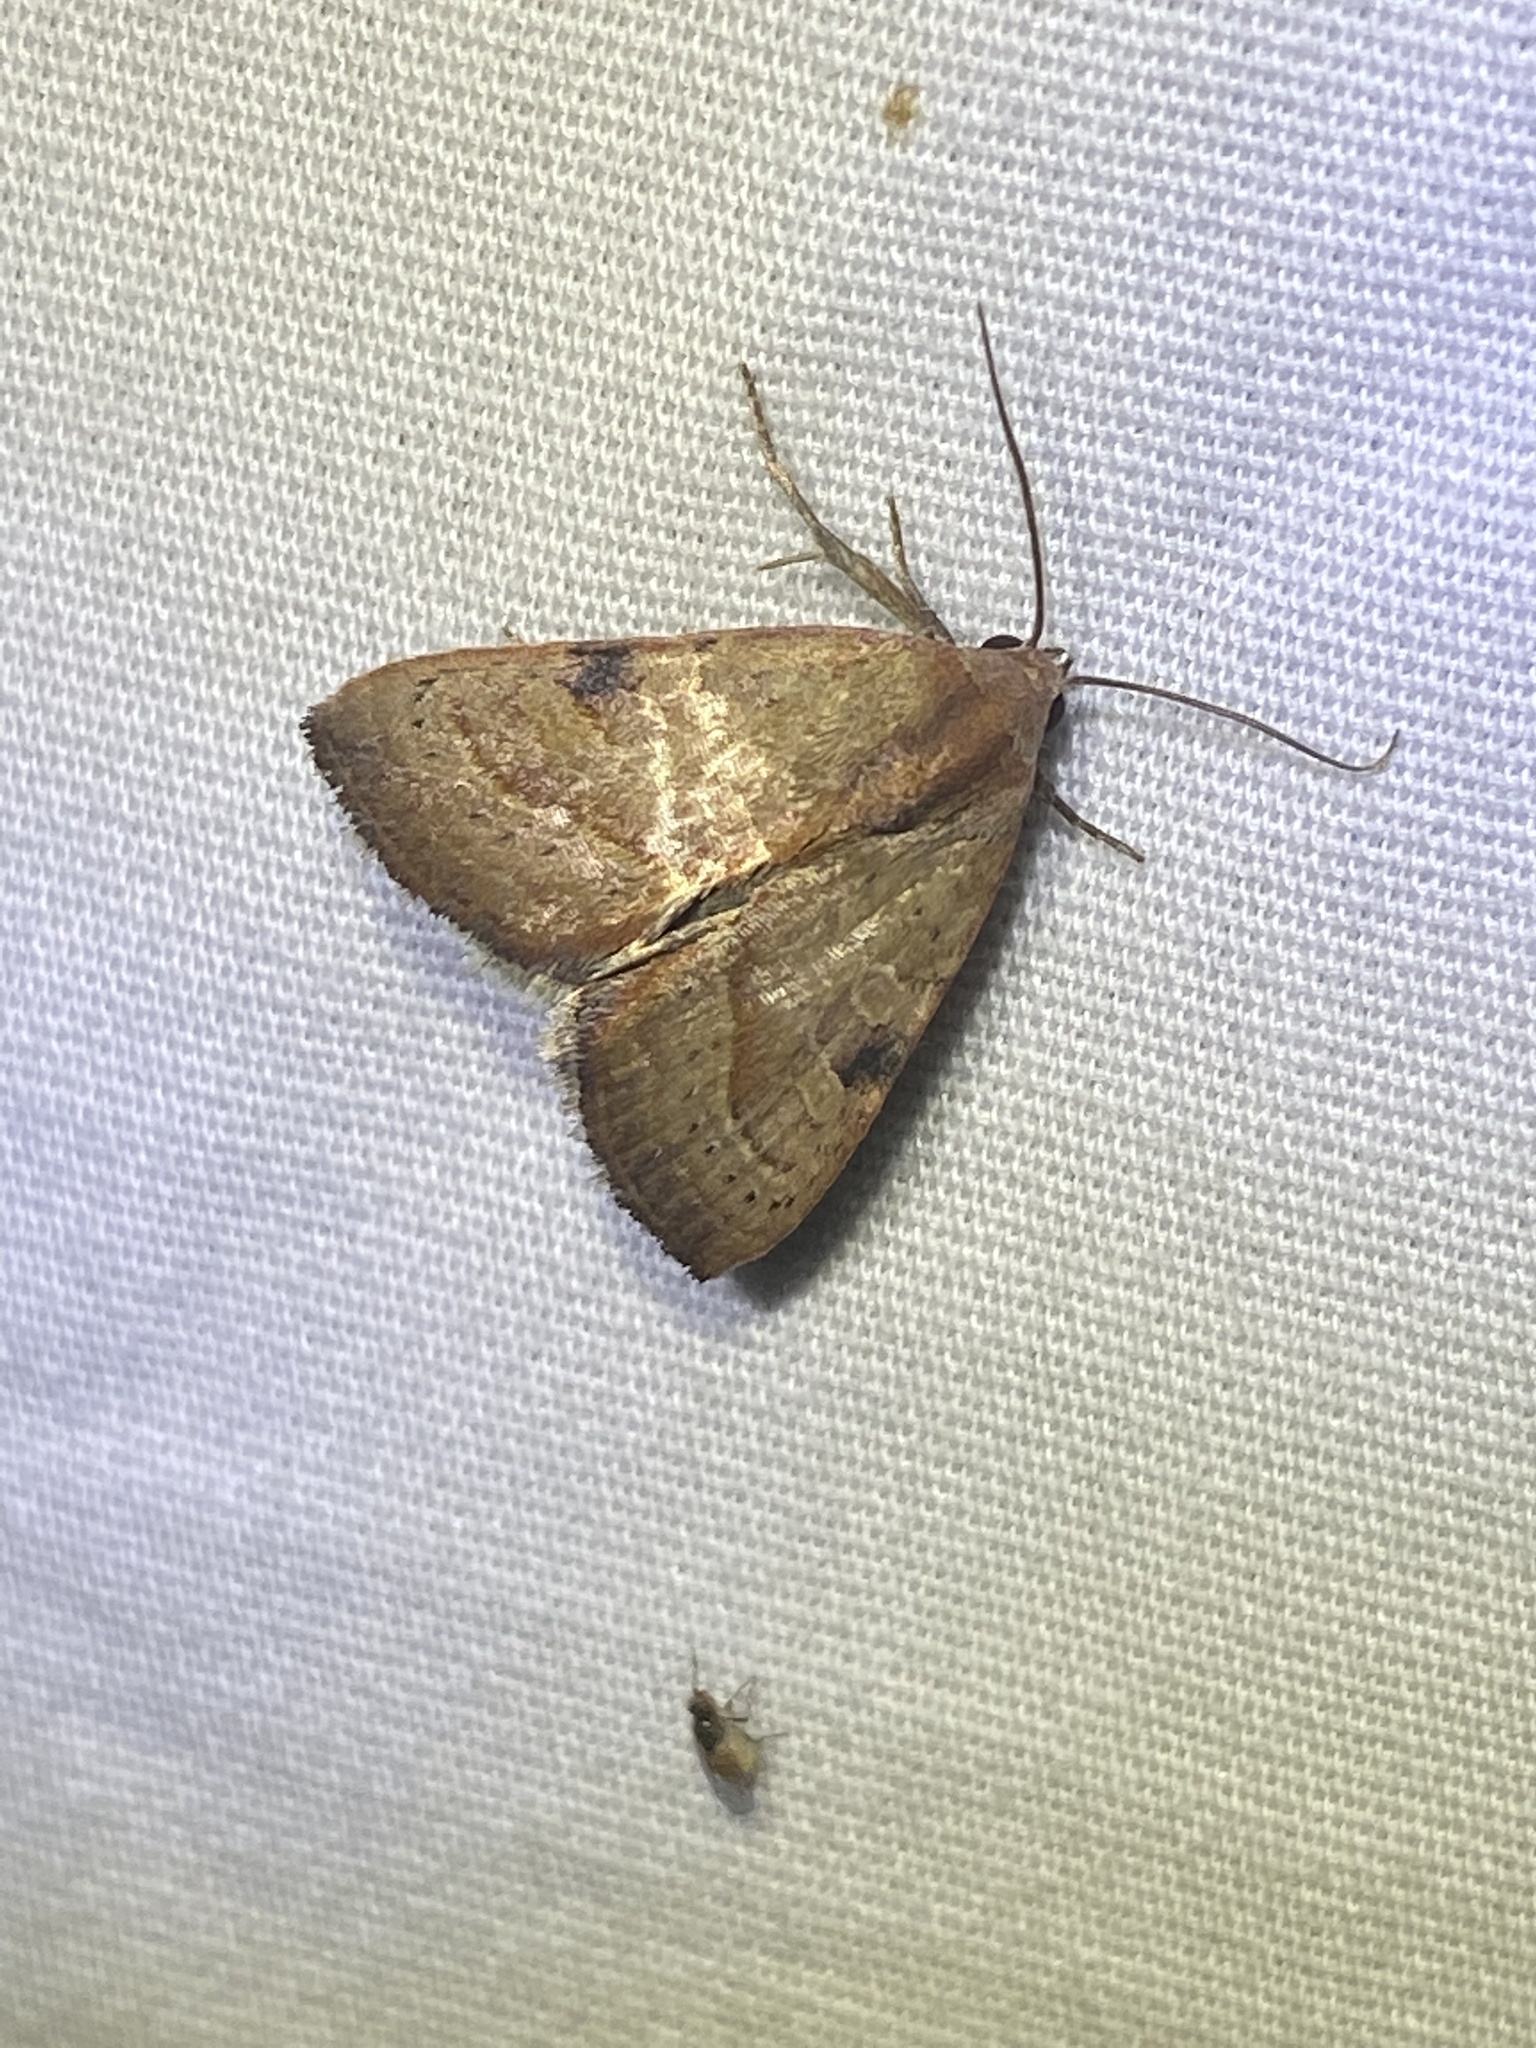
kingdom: Animalia
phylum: Arthropoda
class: Insecta
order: Lepidoptera
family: Noctuidae
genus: Galgula
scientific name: Galgula partita
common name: Wedgeling
